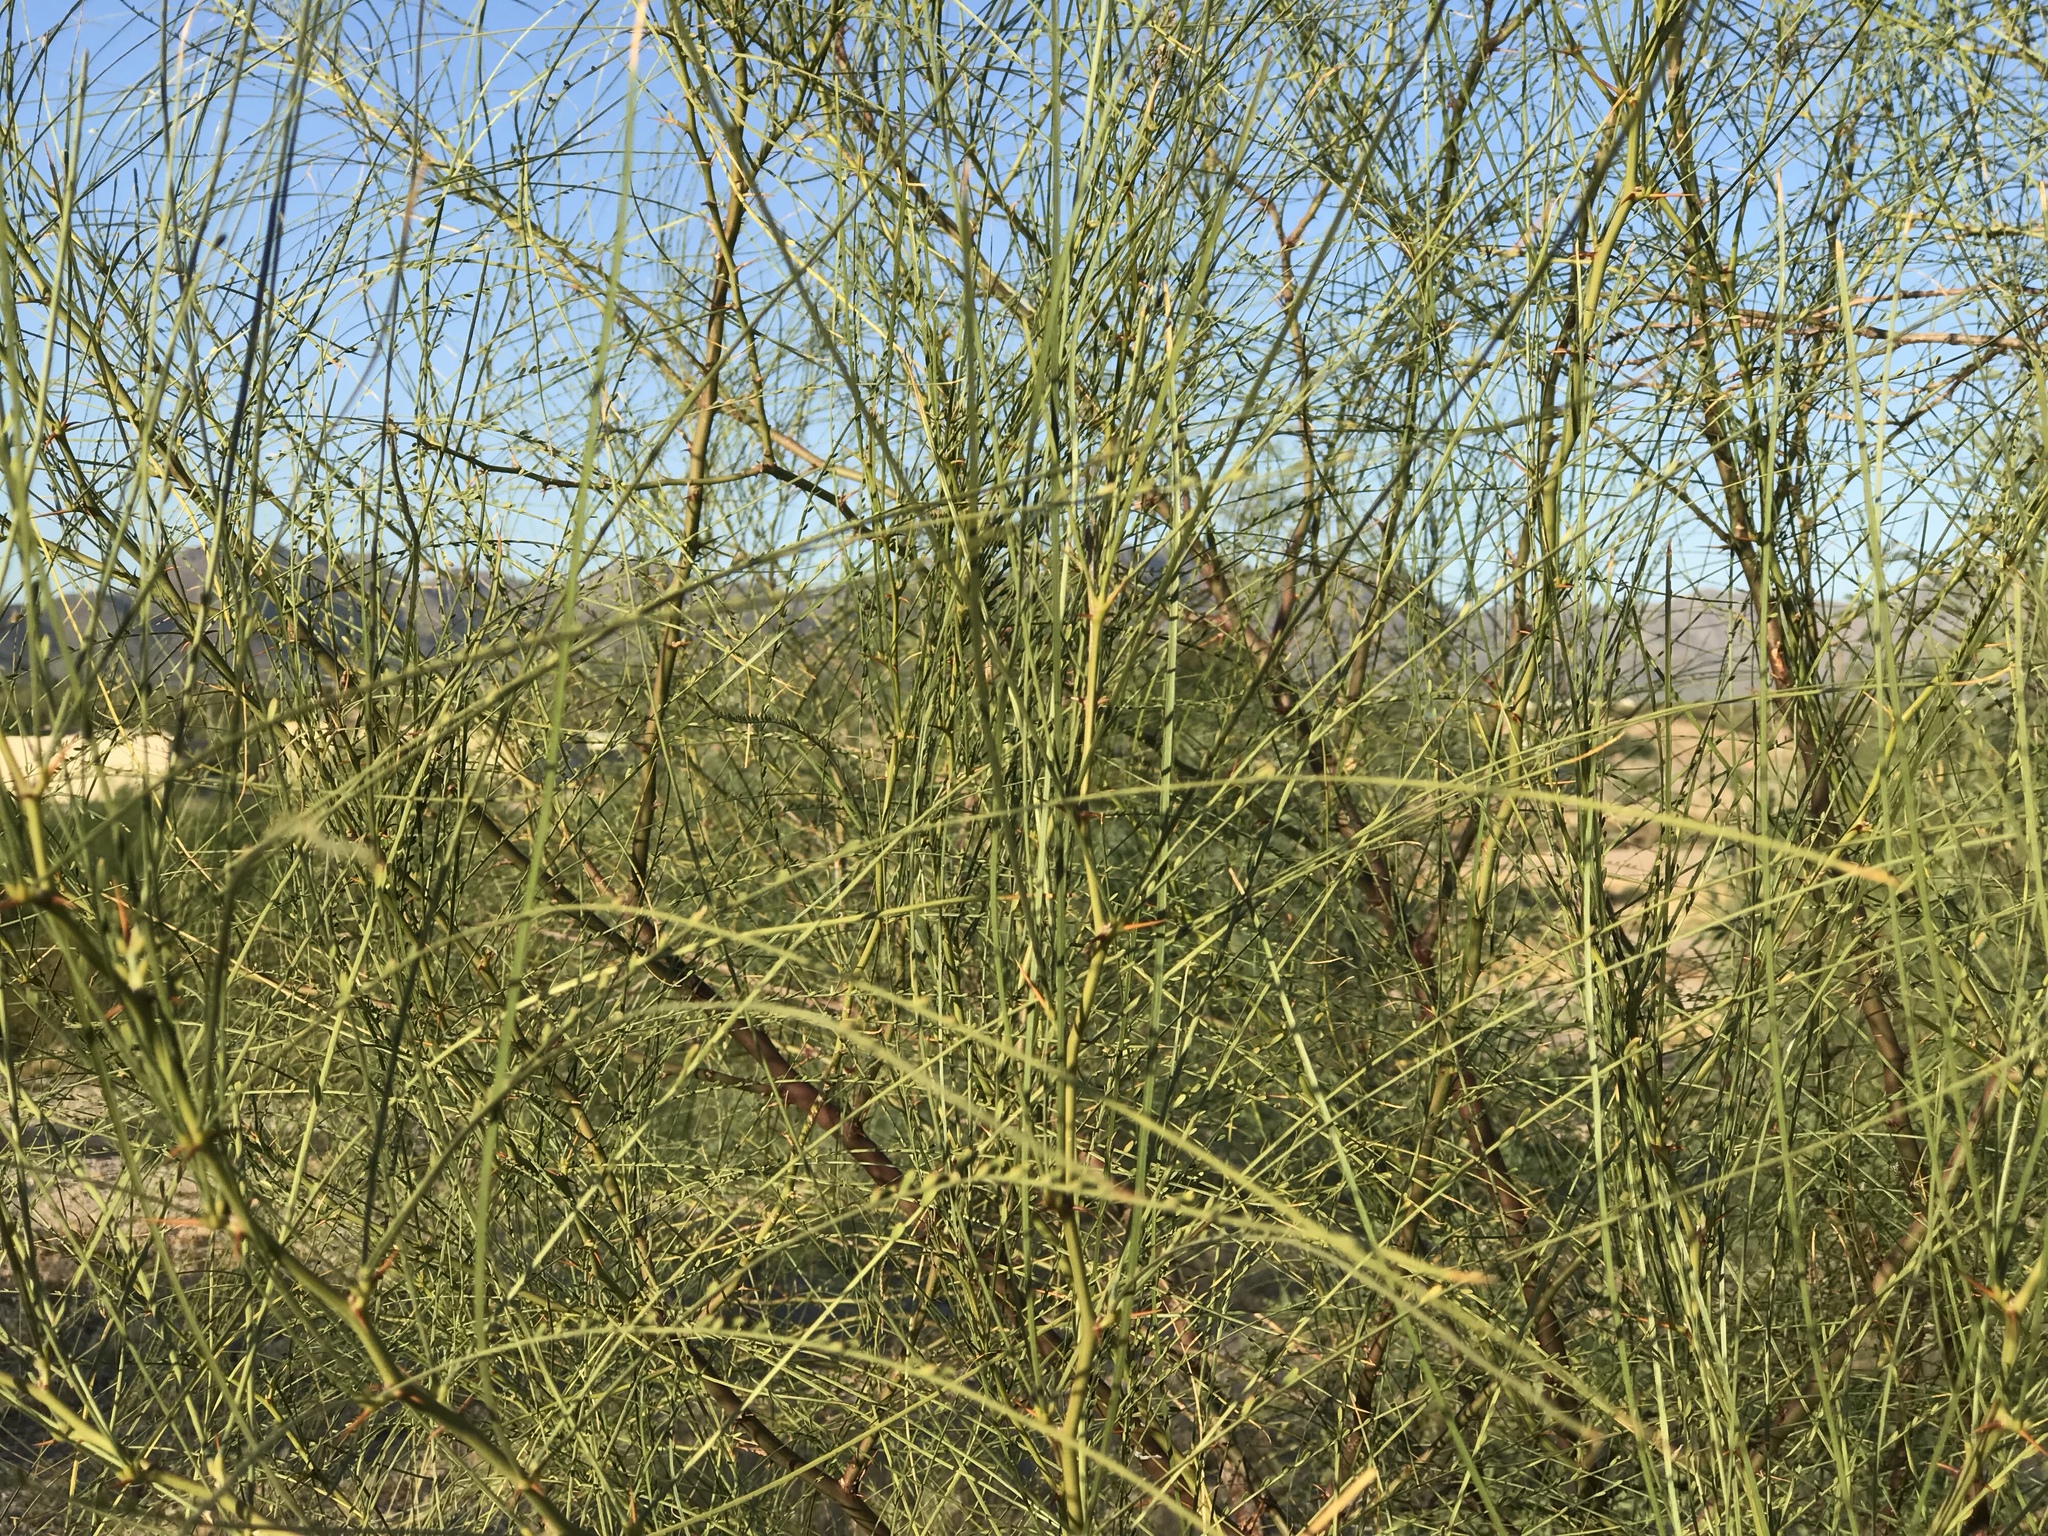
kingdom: Plantae
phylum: Tracheophyta
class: Magnoliopsida
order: Fabales
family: Fabaceae
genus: Parkinsonia
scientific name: Parkinsonia aculeata
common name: Jerusalem thorn
